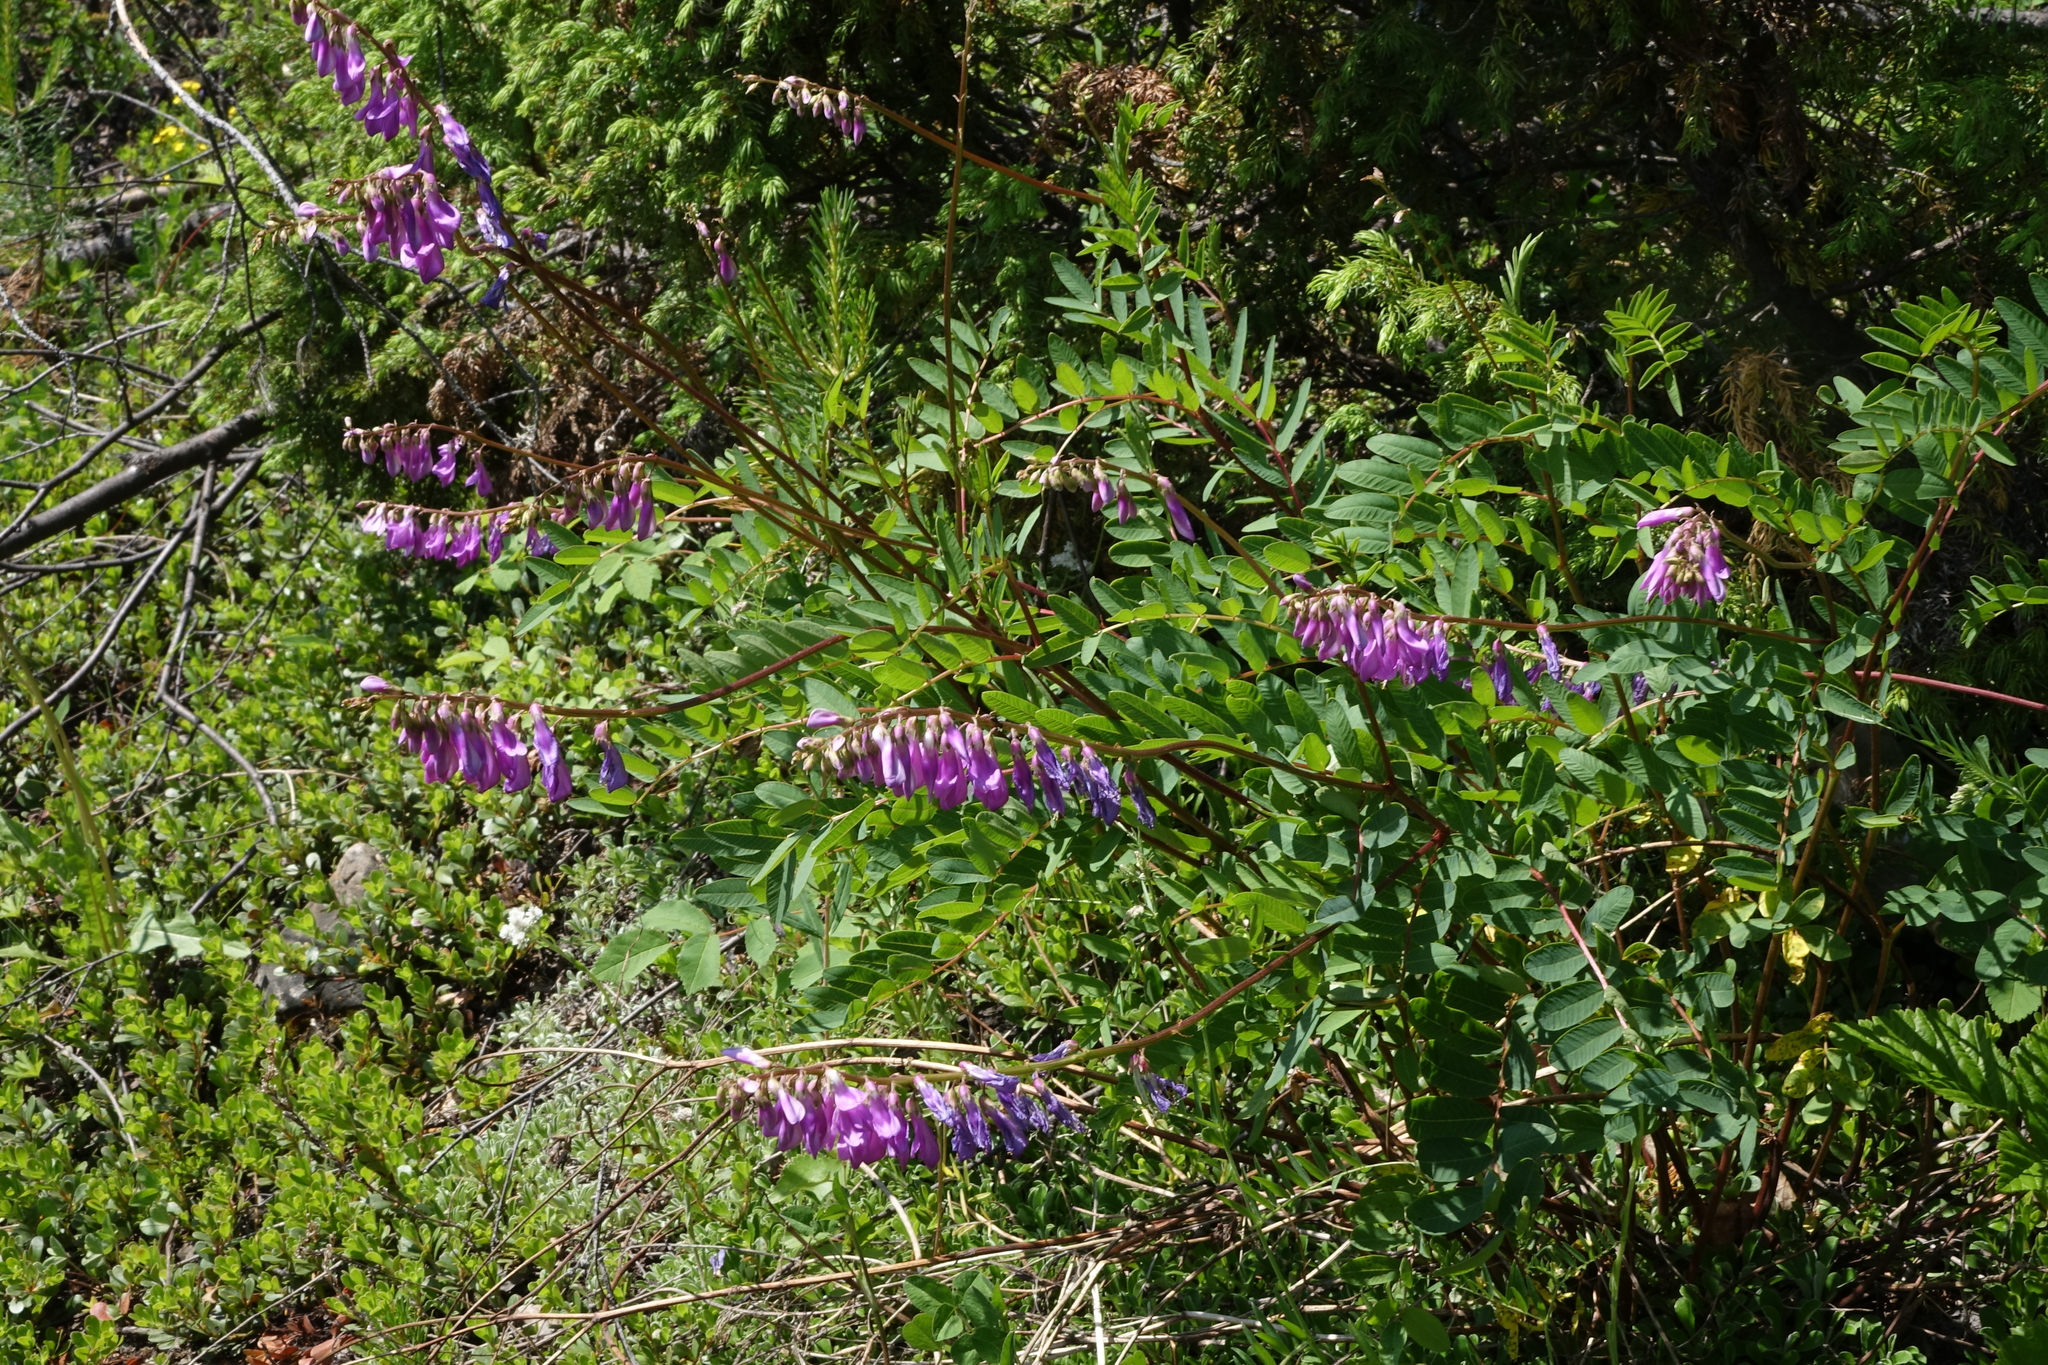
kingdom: Plantae
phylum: Tracheophyta
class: Magnoliopsida
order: Fabales
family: Fabaceae
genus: Hedysarum
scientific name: Hedysarum branthii
